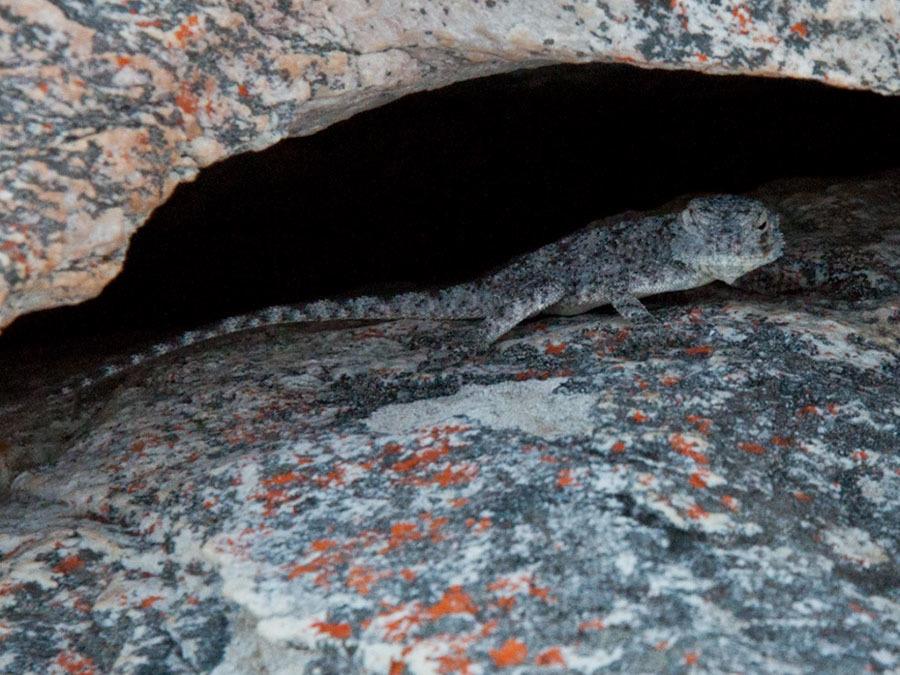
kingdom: Animalia
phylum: Chordata
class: Squamata
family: Agamidae
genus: Agama
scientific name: Agama atra
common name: Southern african rock agama
